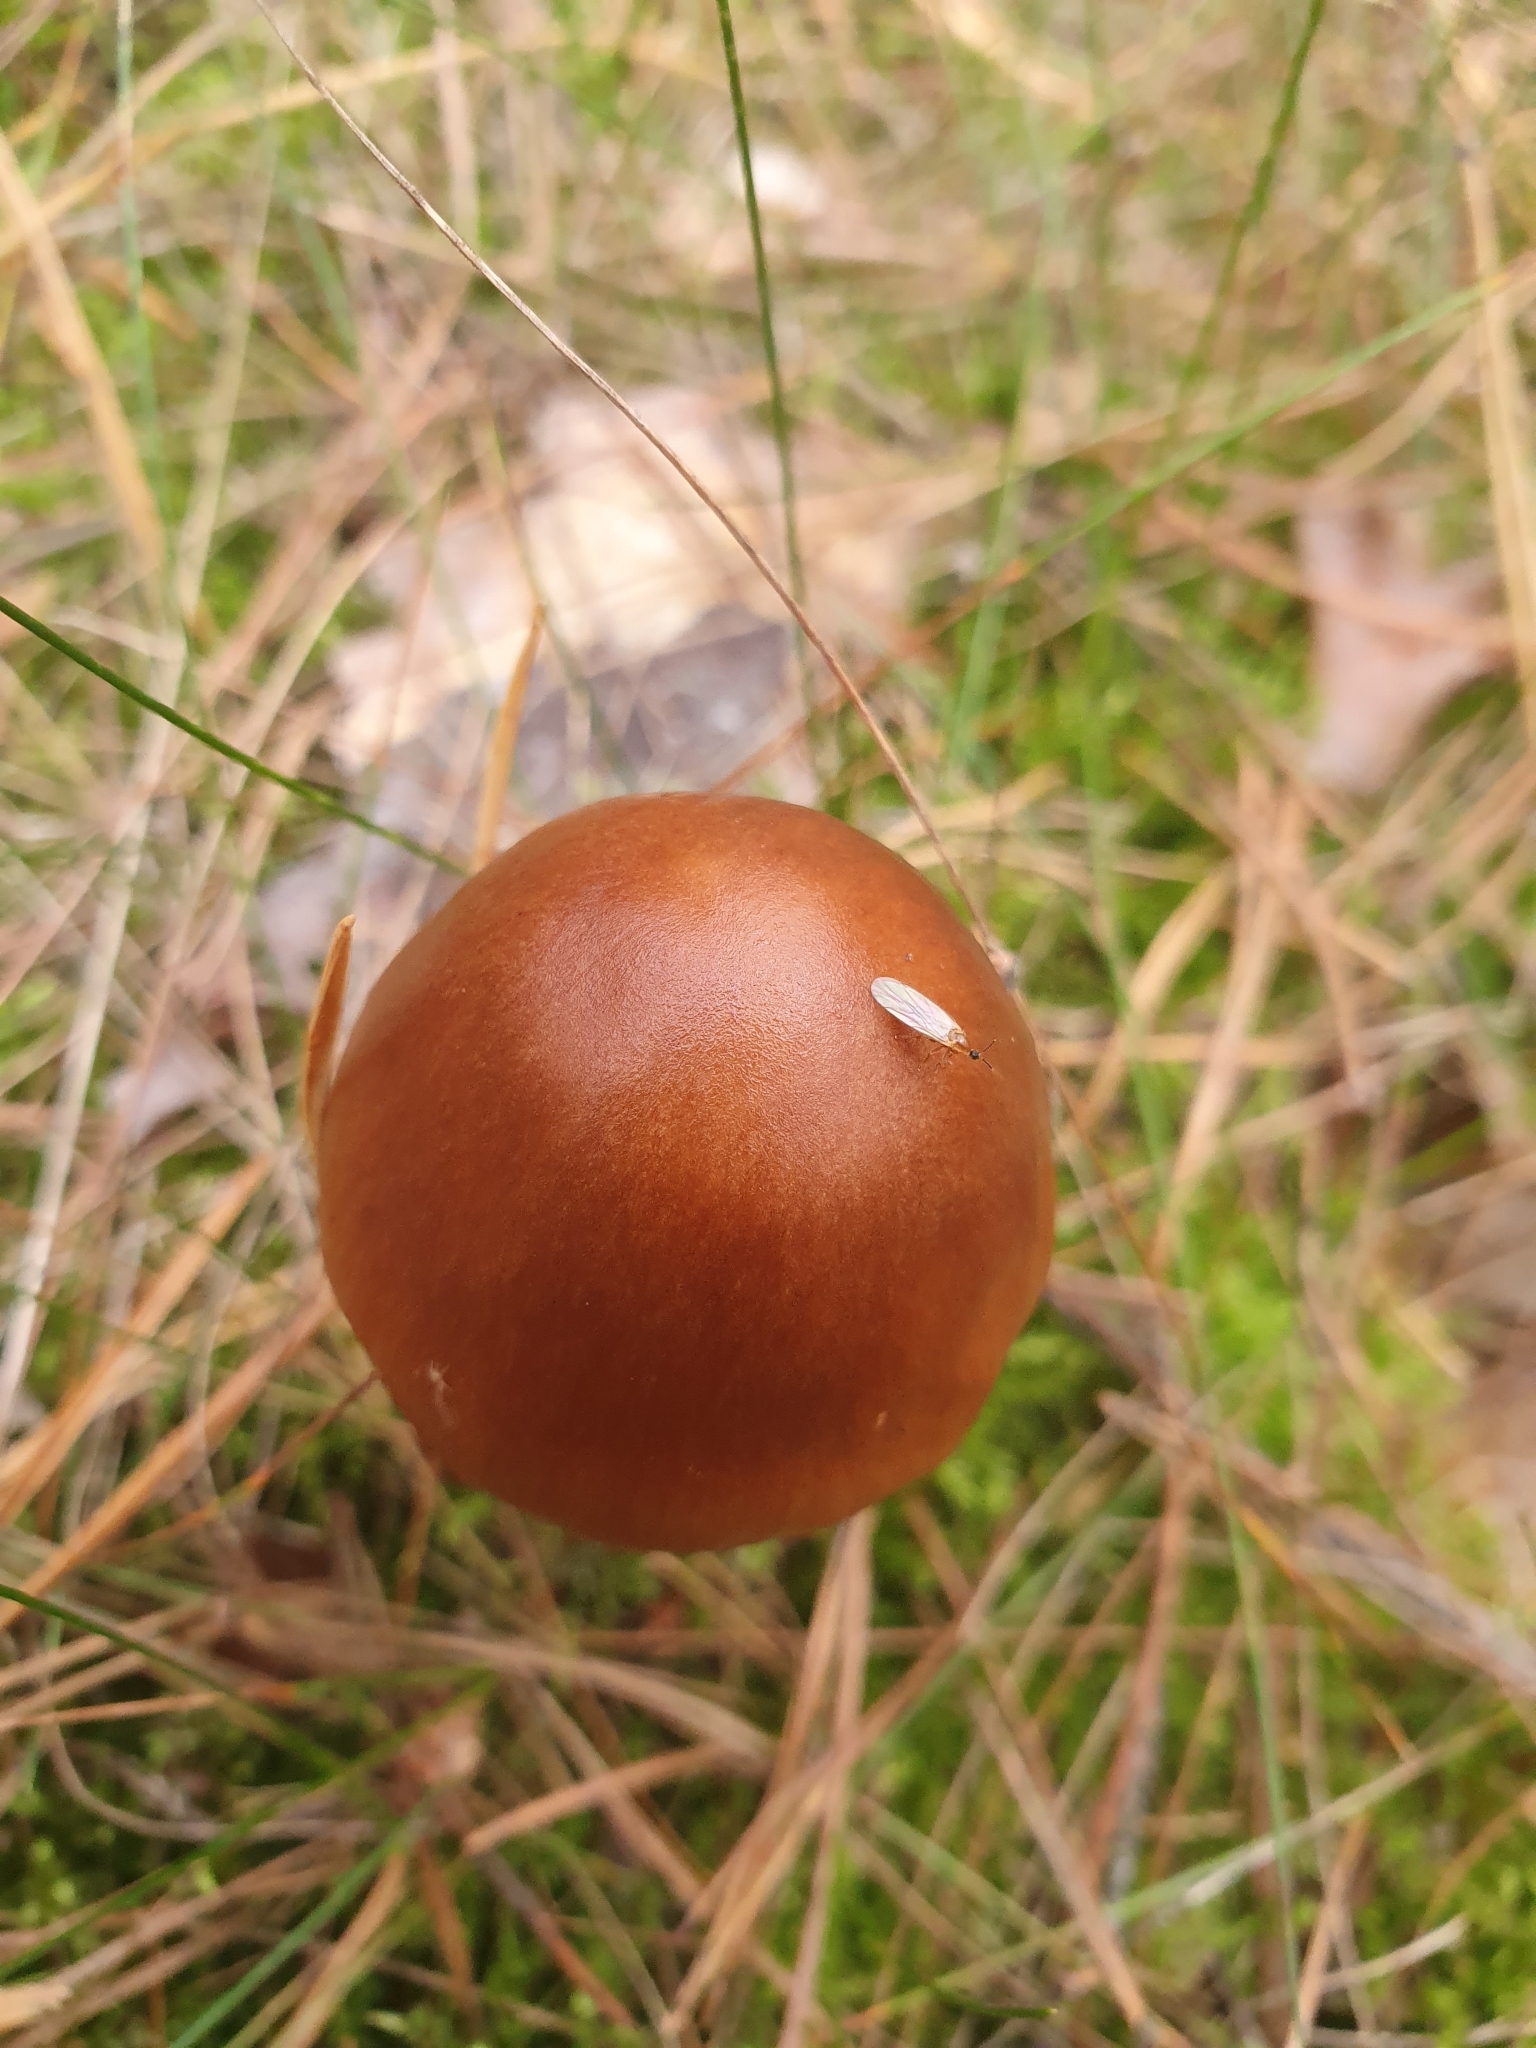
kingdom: Fungi
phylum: Basidiomycota
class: Agaricomycetes
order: Agaricales
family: Amanitaceae
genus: Amanita
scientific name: Amanita fulva
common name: Tawny grisette
